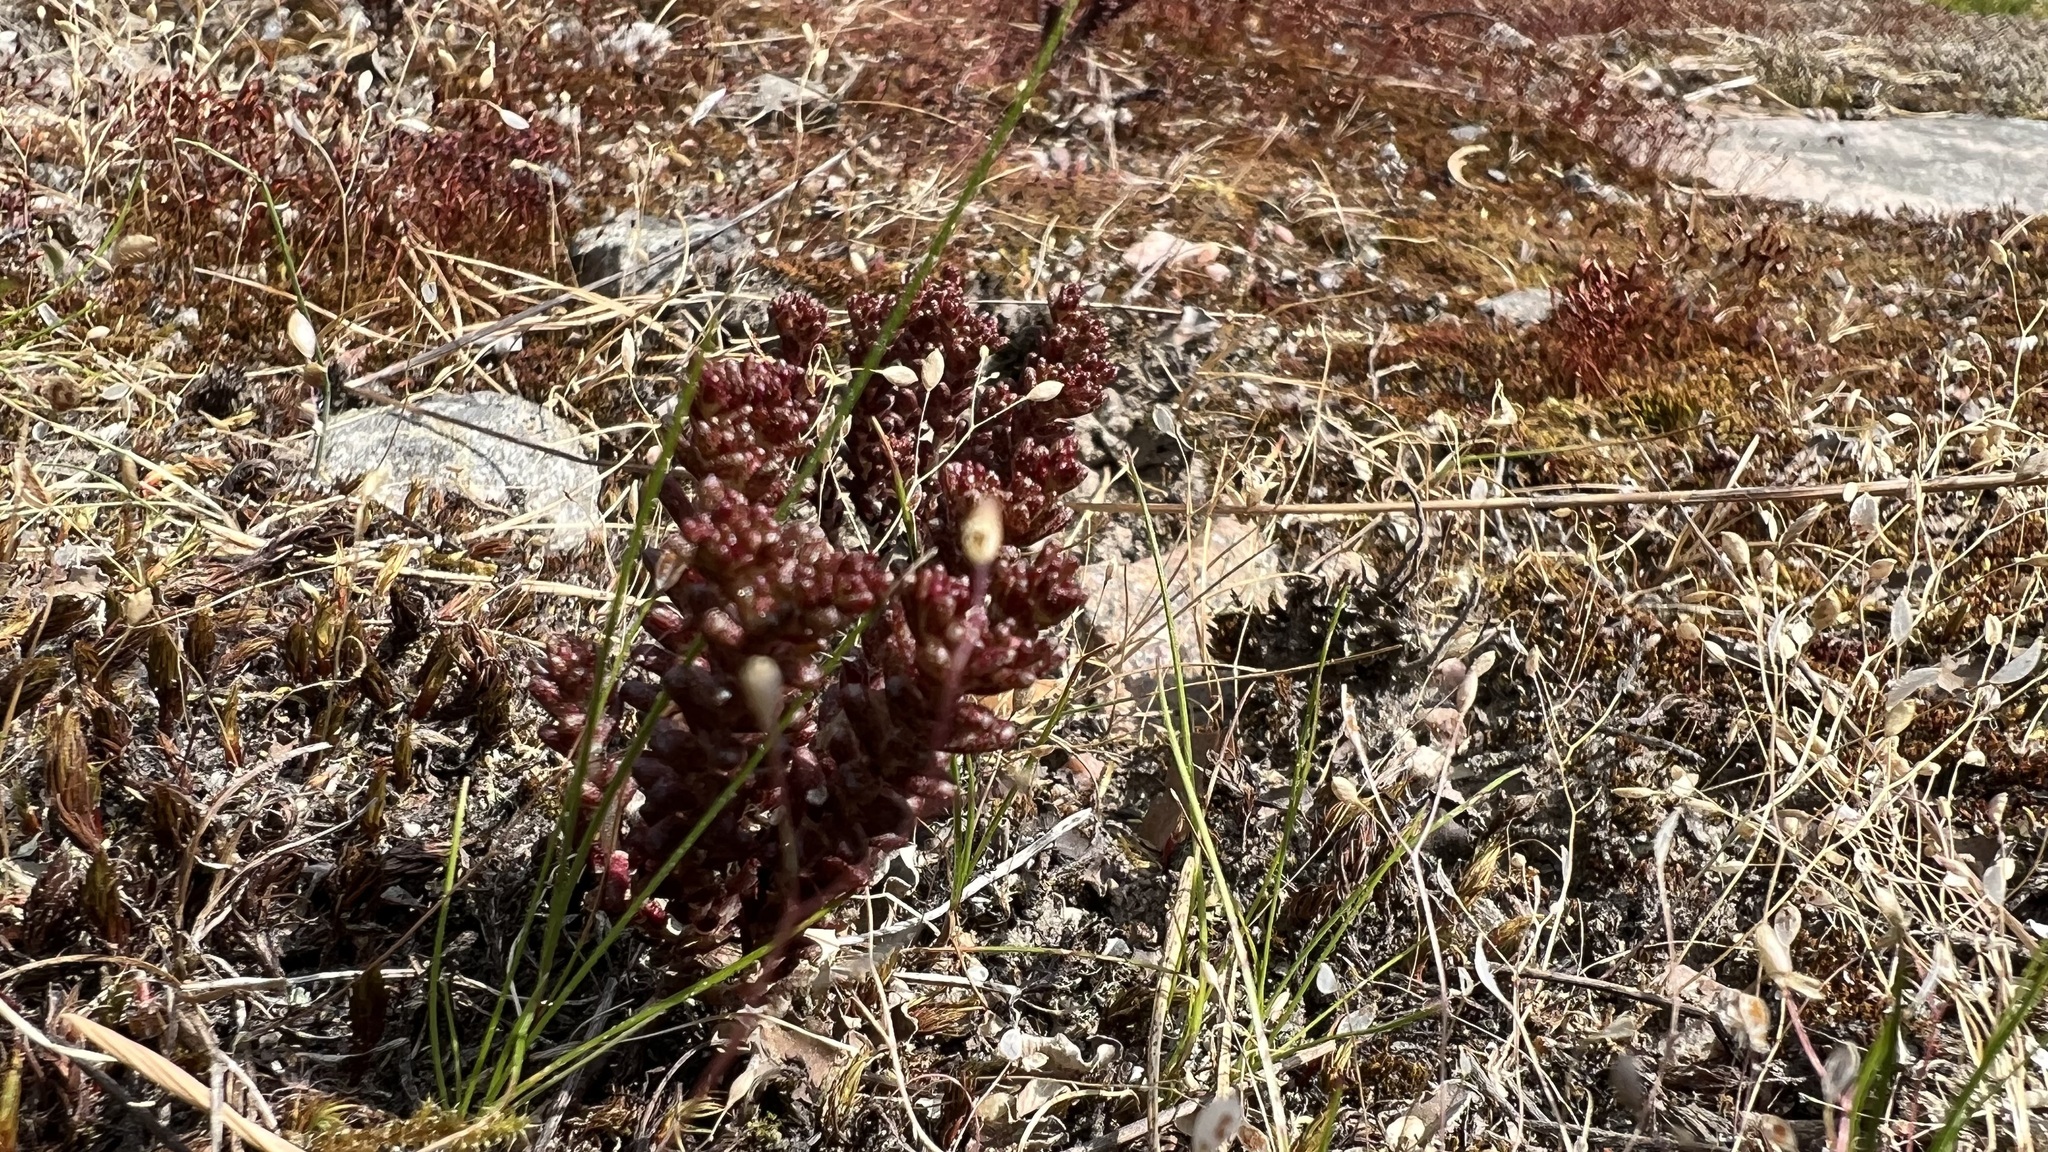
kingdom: Plantae
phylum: Tracheophyta
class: Magnoliopsida
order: Saxifragales
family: Crassulaceae
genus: Sedum
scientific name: Sedum annuum
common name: Annual stonecrop
